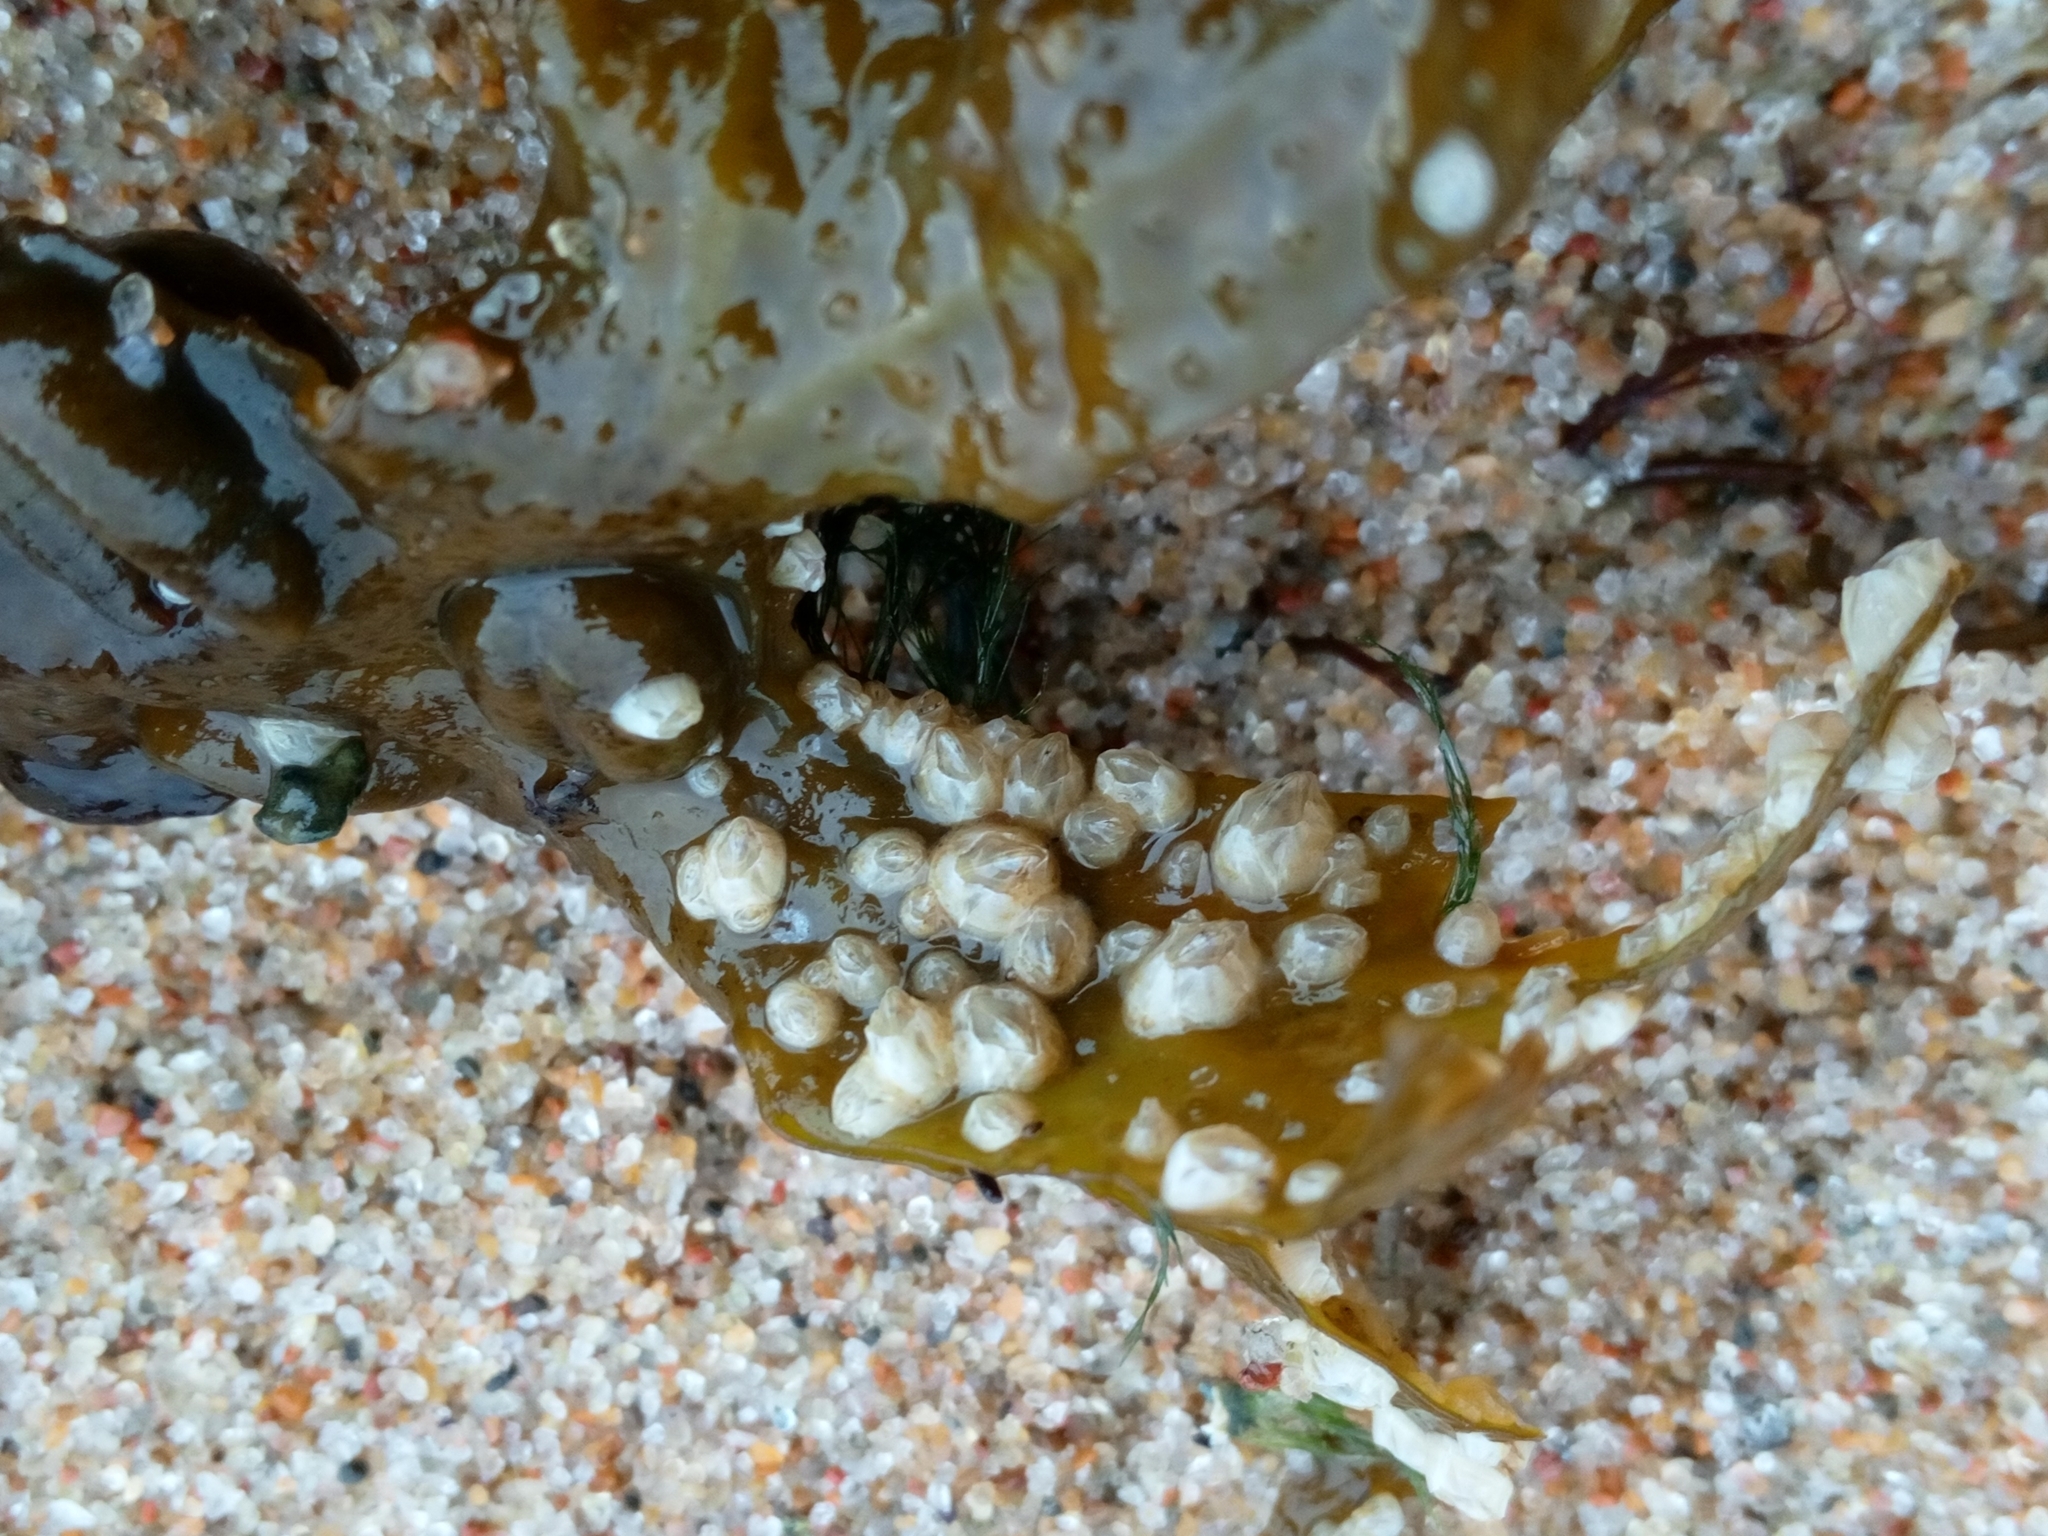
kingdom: Animalia
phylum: Arthropoda
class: Maxillopoda
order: Sessilia
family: Balanidae
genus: Amphibalanus
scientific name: Amphibalanus improvisus
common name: Bay barnacle
